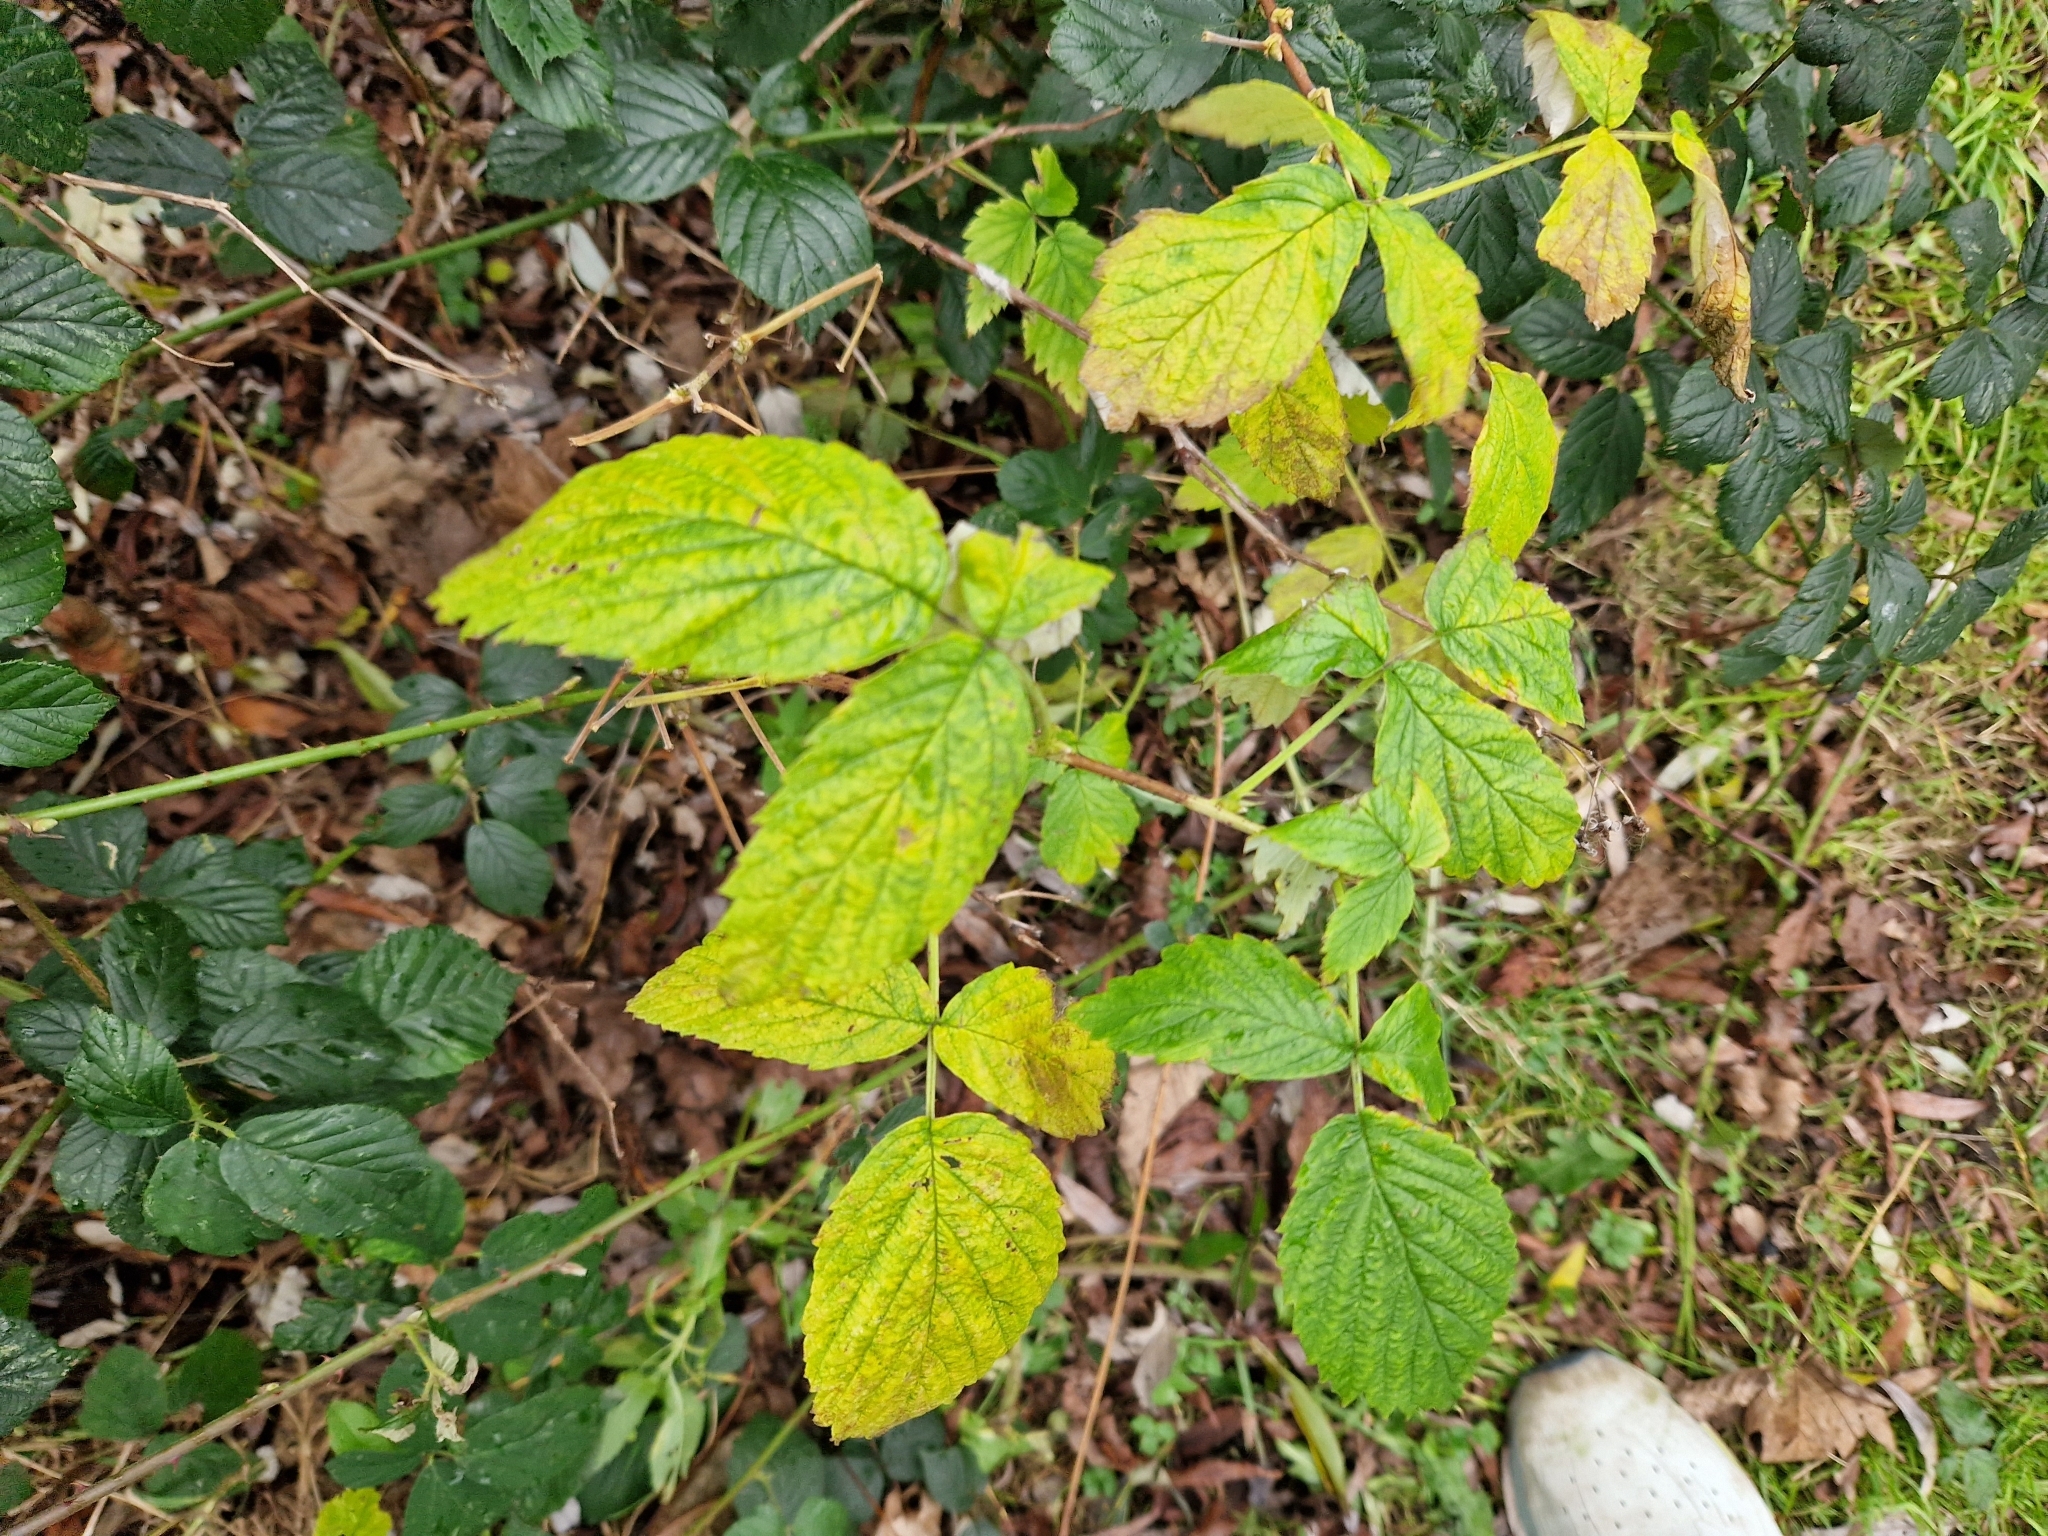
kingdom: Plantae
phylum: Tracheophyta
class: Magnoliopsida
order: Rosales
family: Rosaceae
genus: Rubus
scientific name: Rubus idaeus
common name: Raspberry
